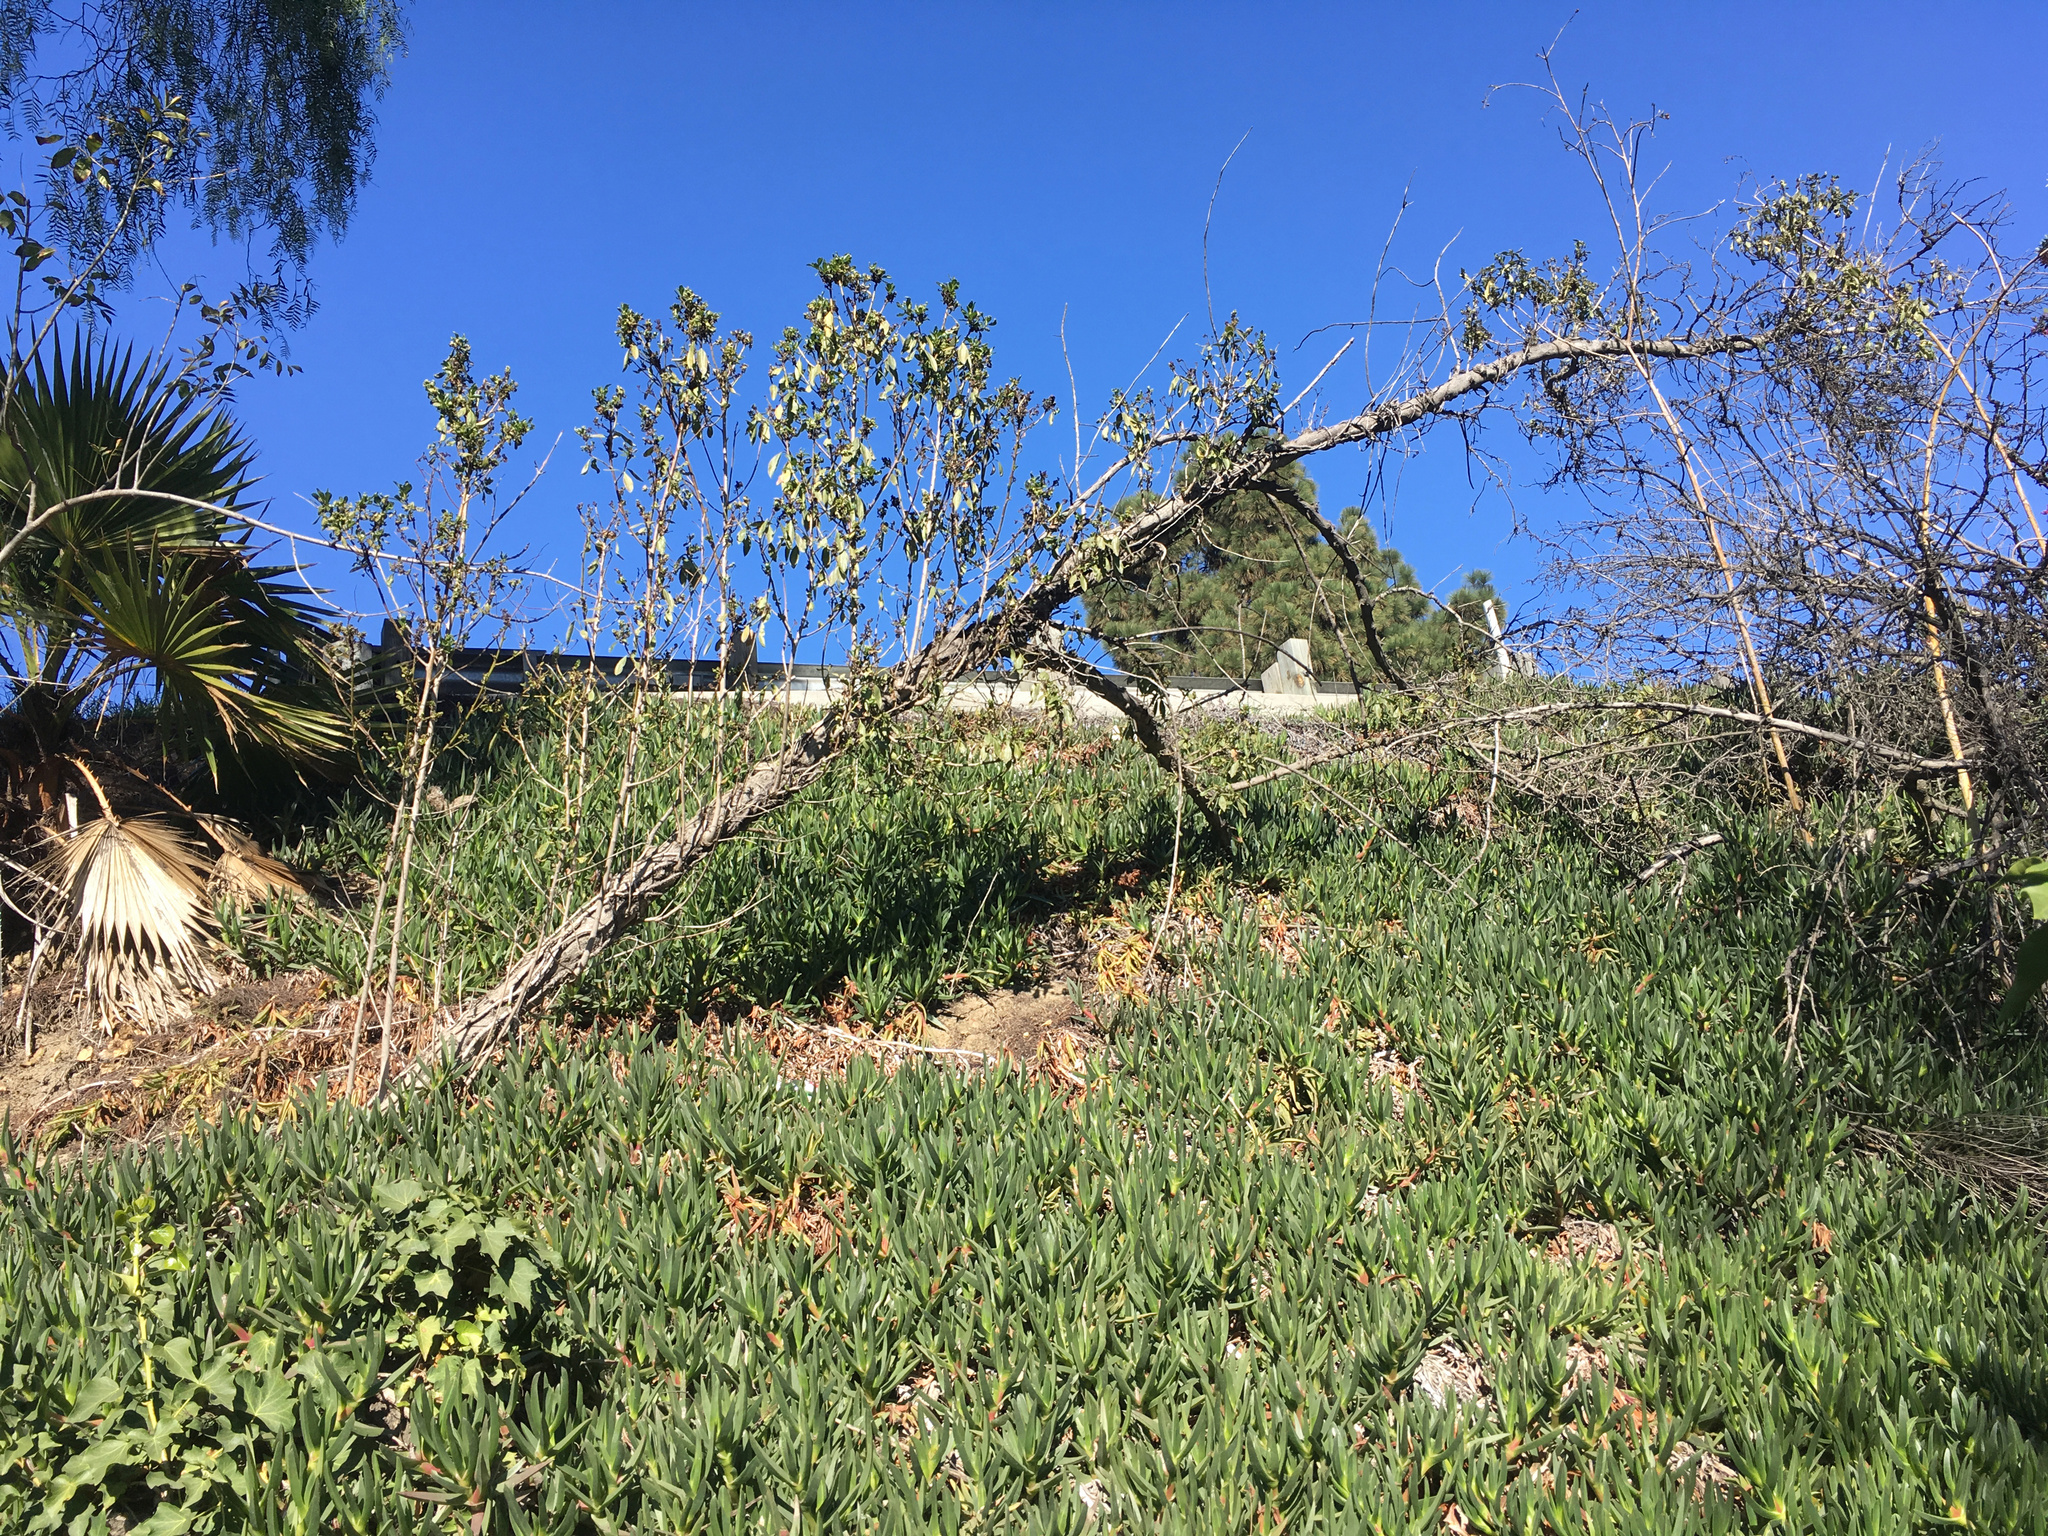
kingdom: Plantae
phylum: Tracheophyta
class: Magnoliopsida
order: Lamiales
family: Scrophulariaceae
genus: Myoporum
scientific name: Myoporum laetum
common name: Ngaio tree
